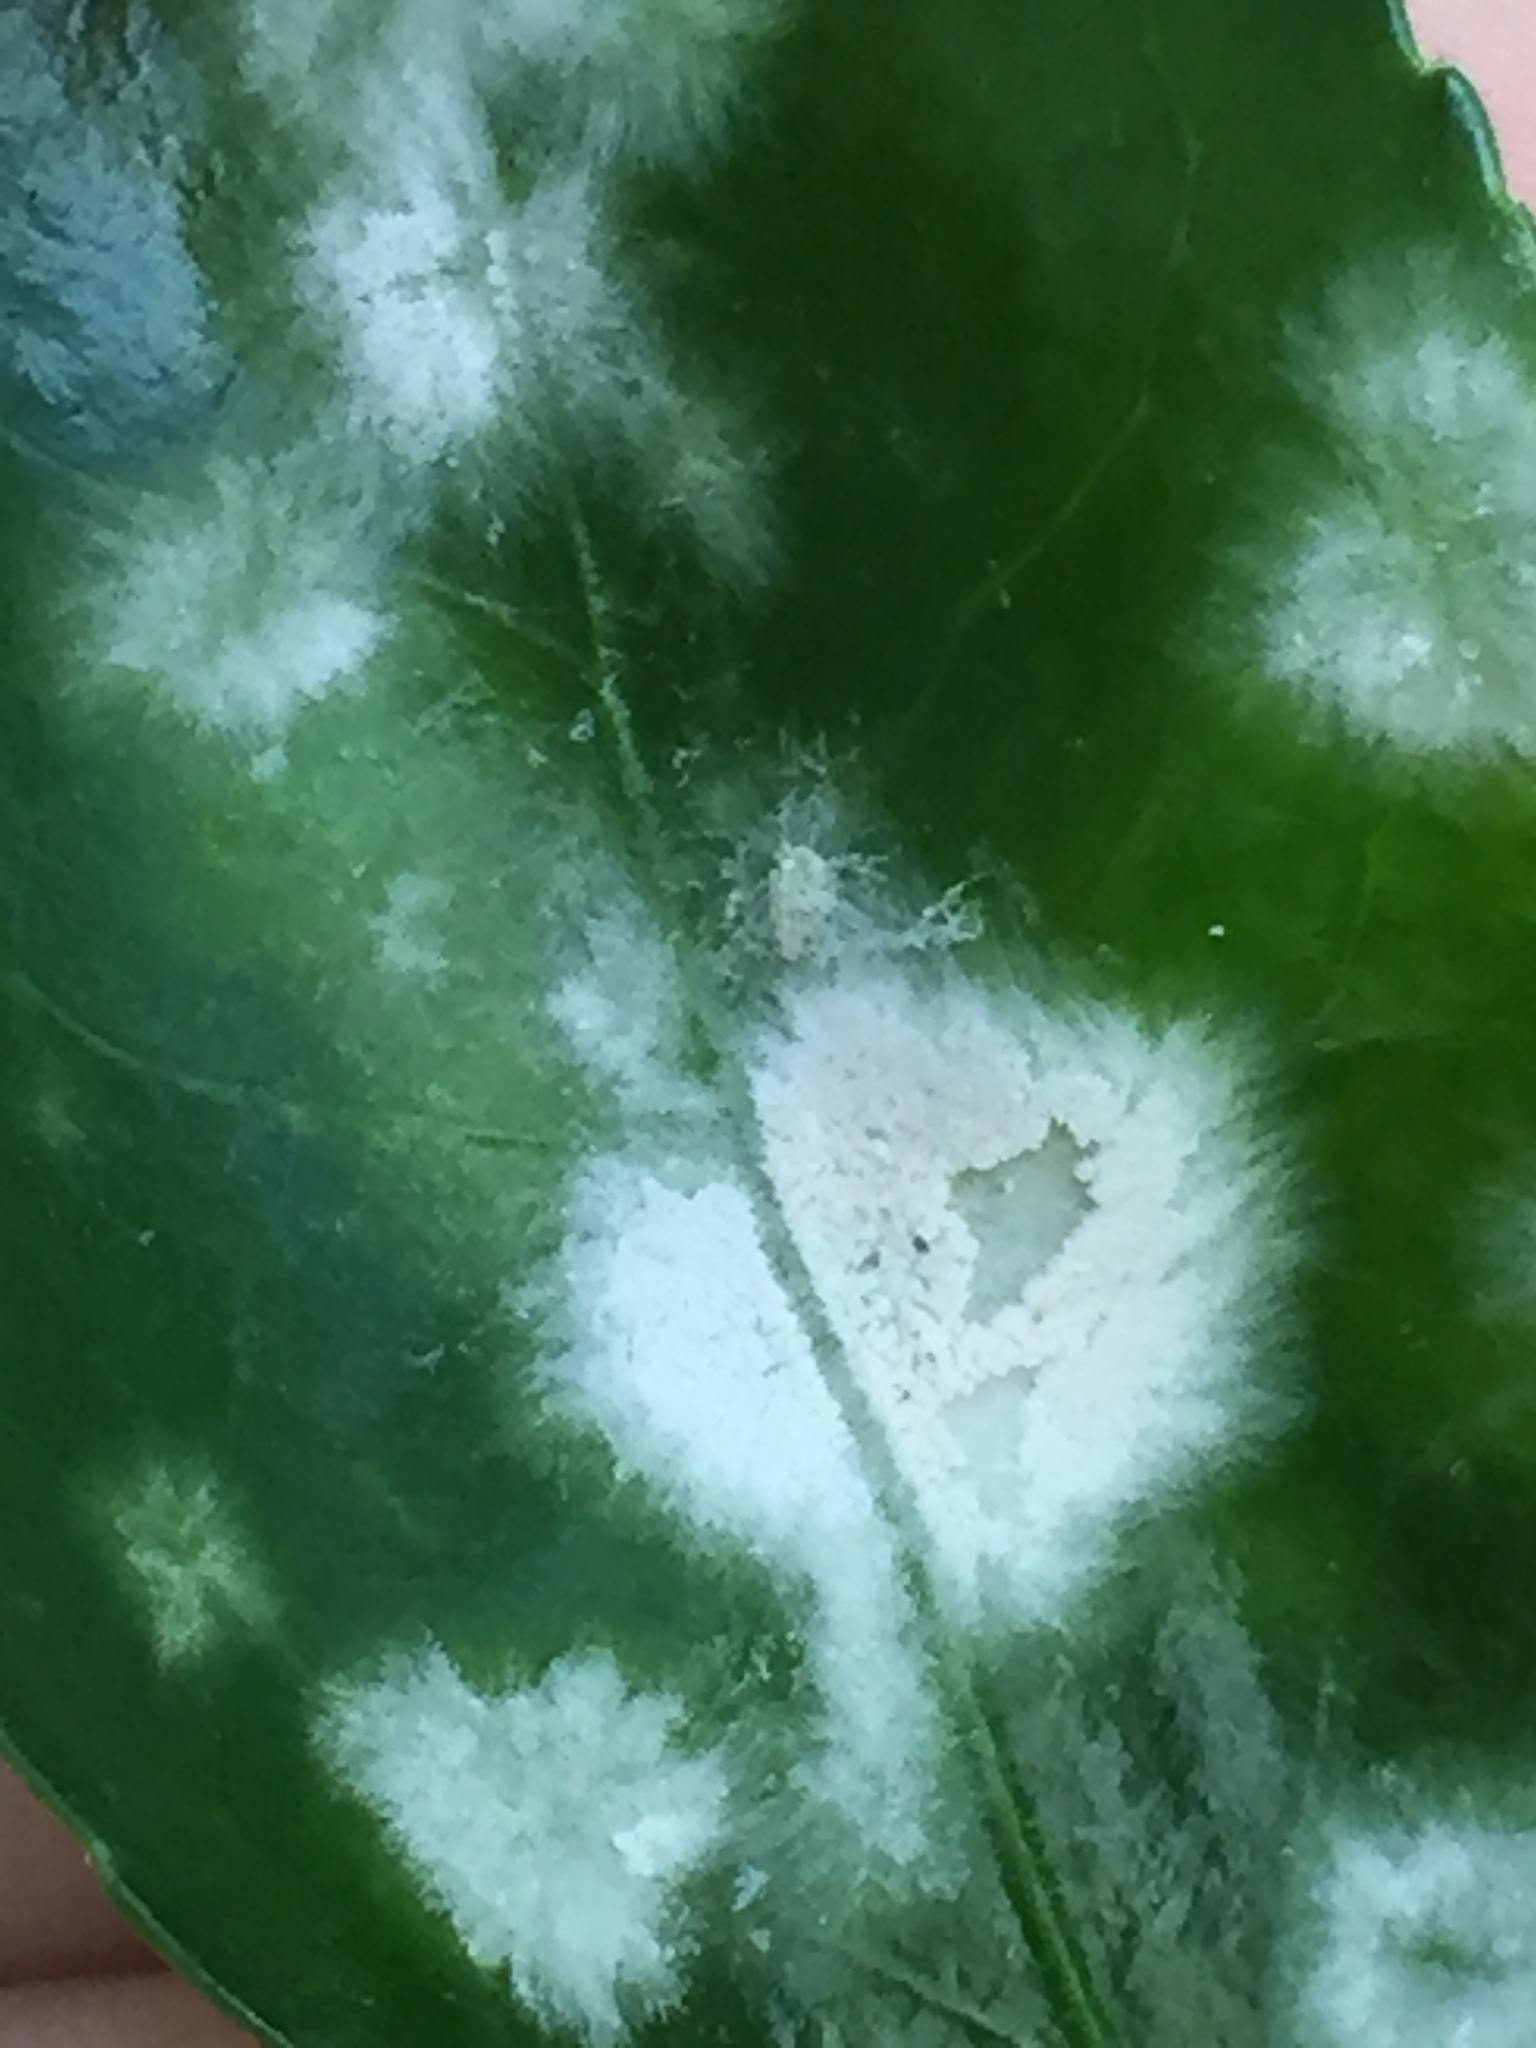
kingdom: Fungi
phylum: Ascomycota
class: Leotiomycetes
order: Helotiales
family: Erysiphaceae
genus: Erysiphe
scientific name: Erysiphe euonymicola
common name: Spindletree mildew
